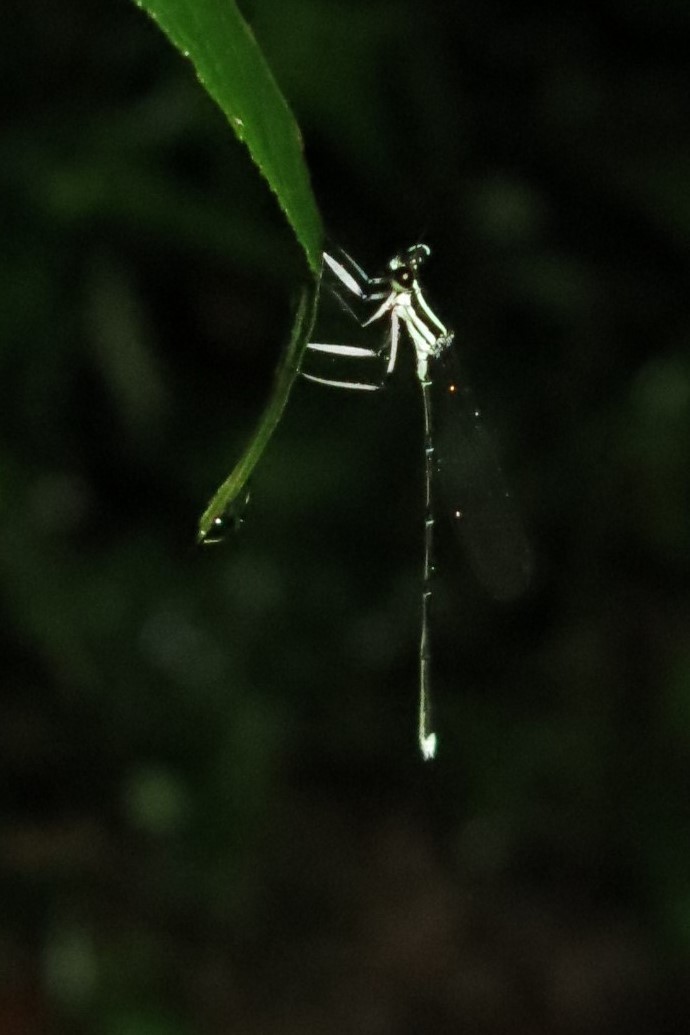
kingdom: Animalia
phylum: Arthropoda
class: Insecta
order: Odonata
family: Platycnemididae
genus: Pseudocopera
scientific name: Pseudocopera ciliata
